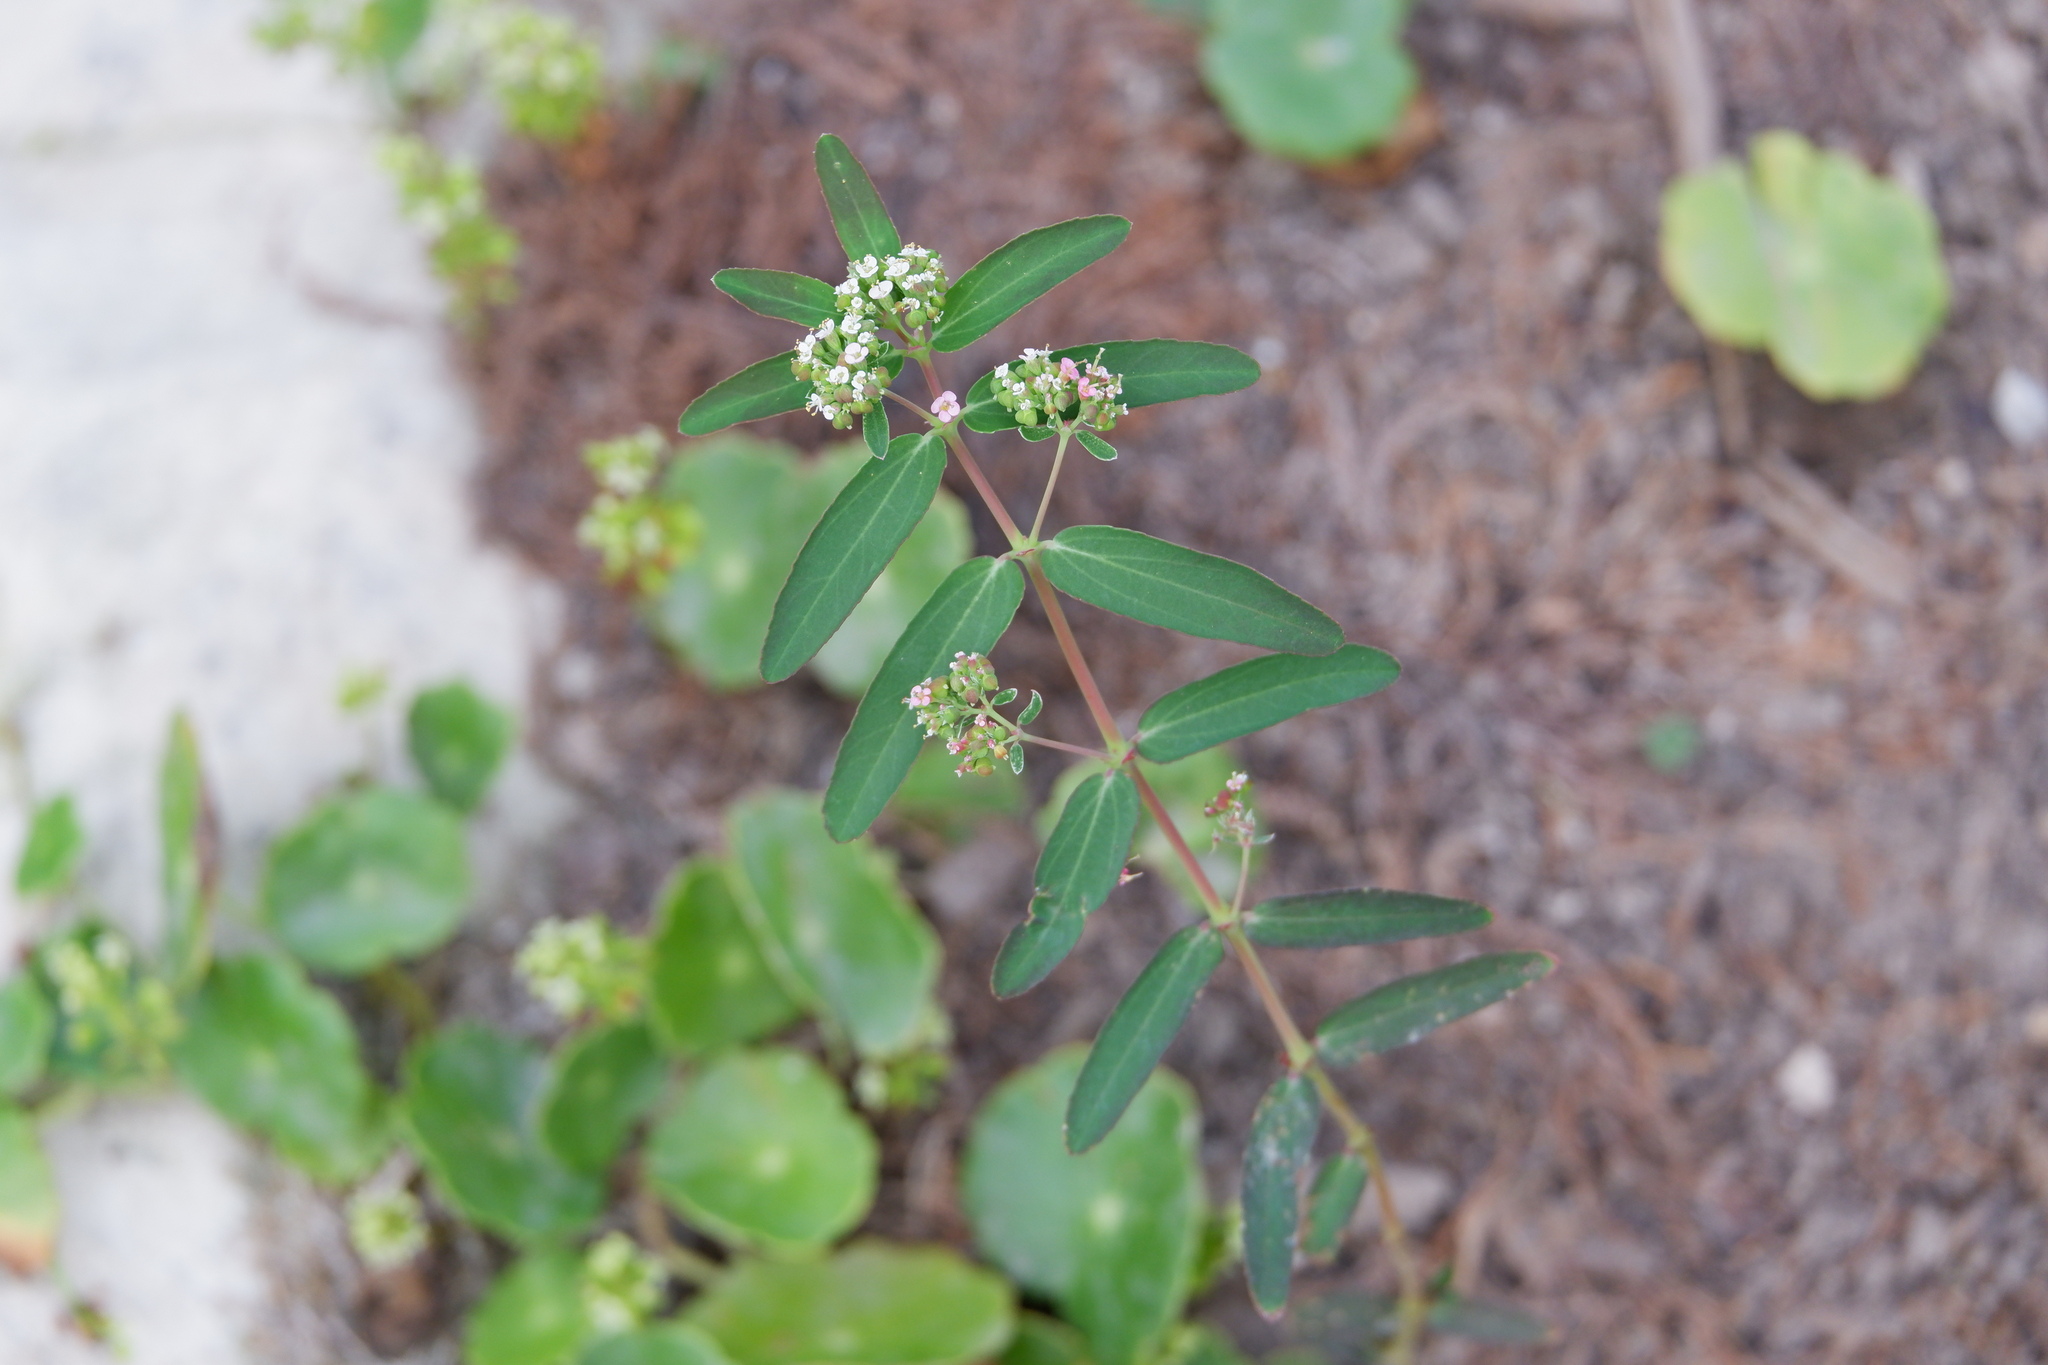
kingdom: Plantae
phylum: Tracheophyta
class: Magnoliopsida
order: Malpighiales
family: Euphorbiaceae
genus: Euphorbia
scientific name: Euphorbia hypericifolia
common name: Graceful sandmat
